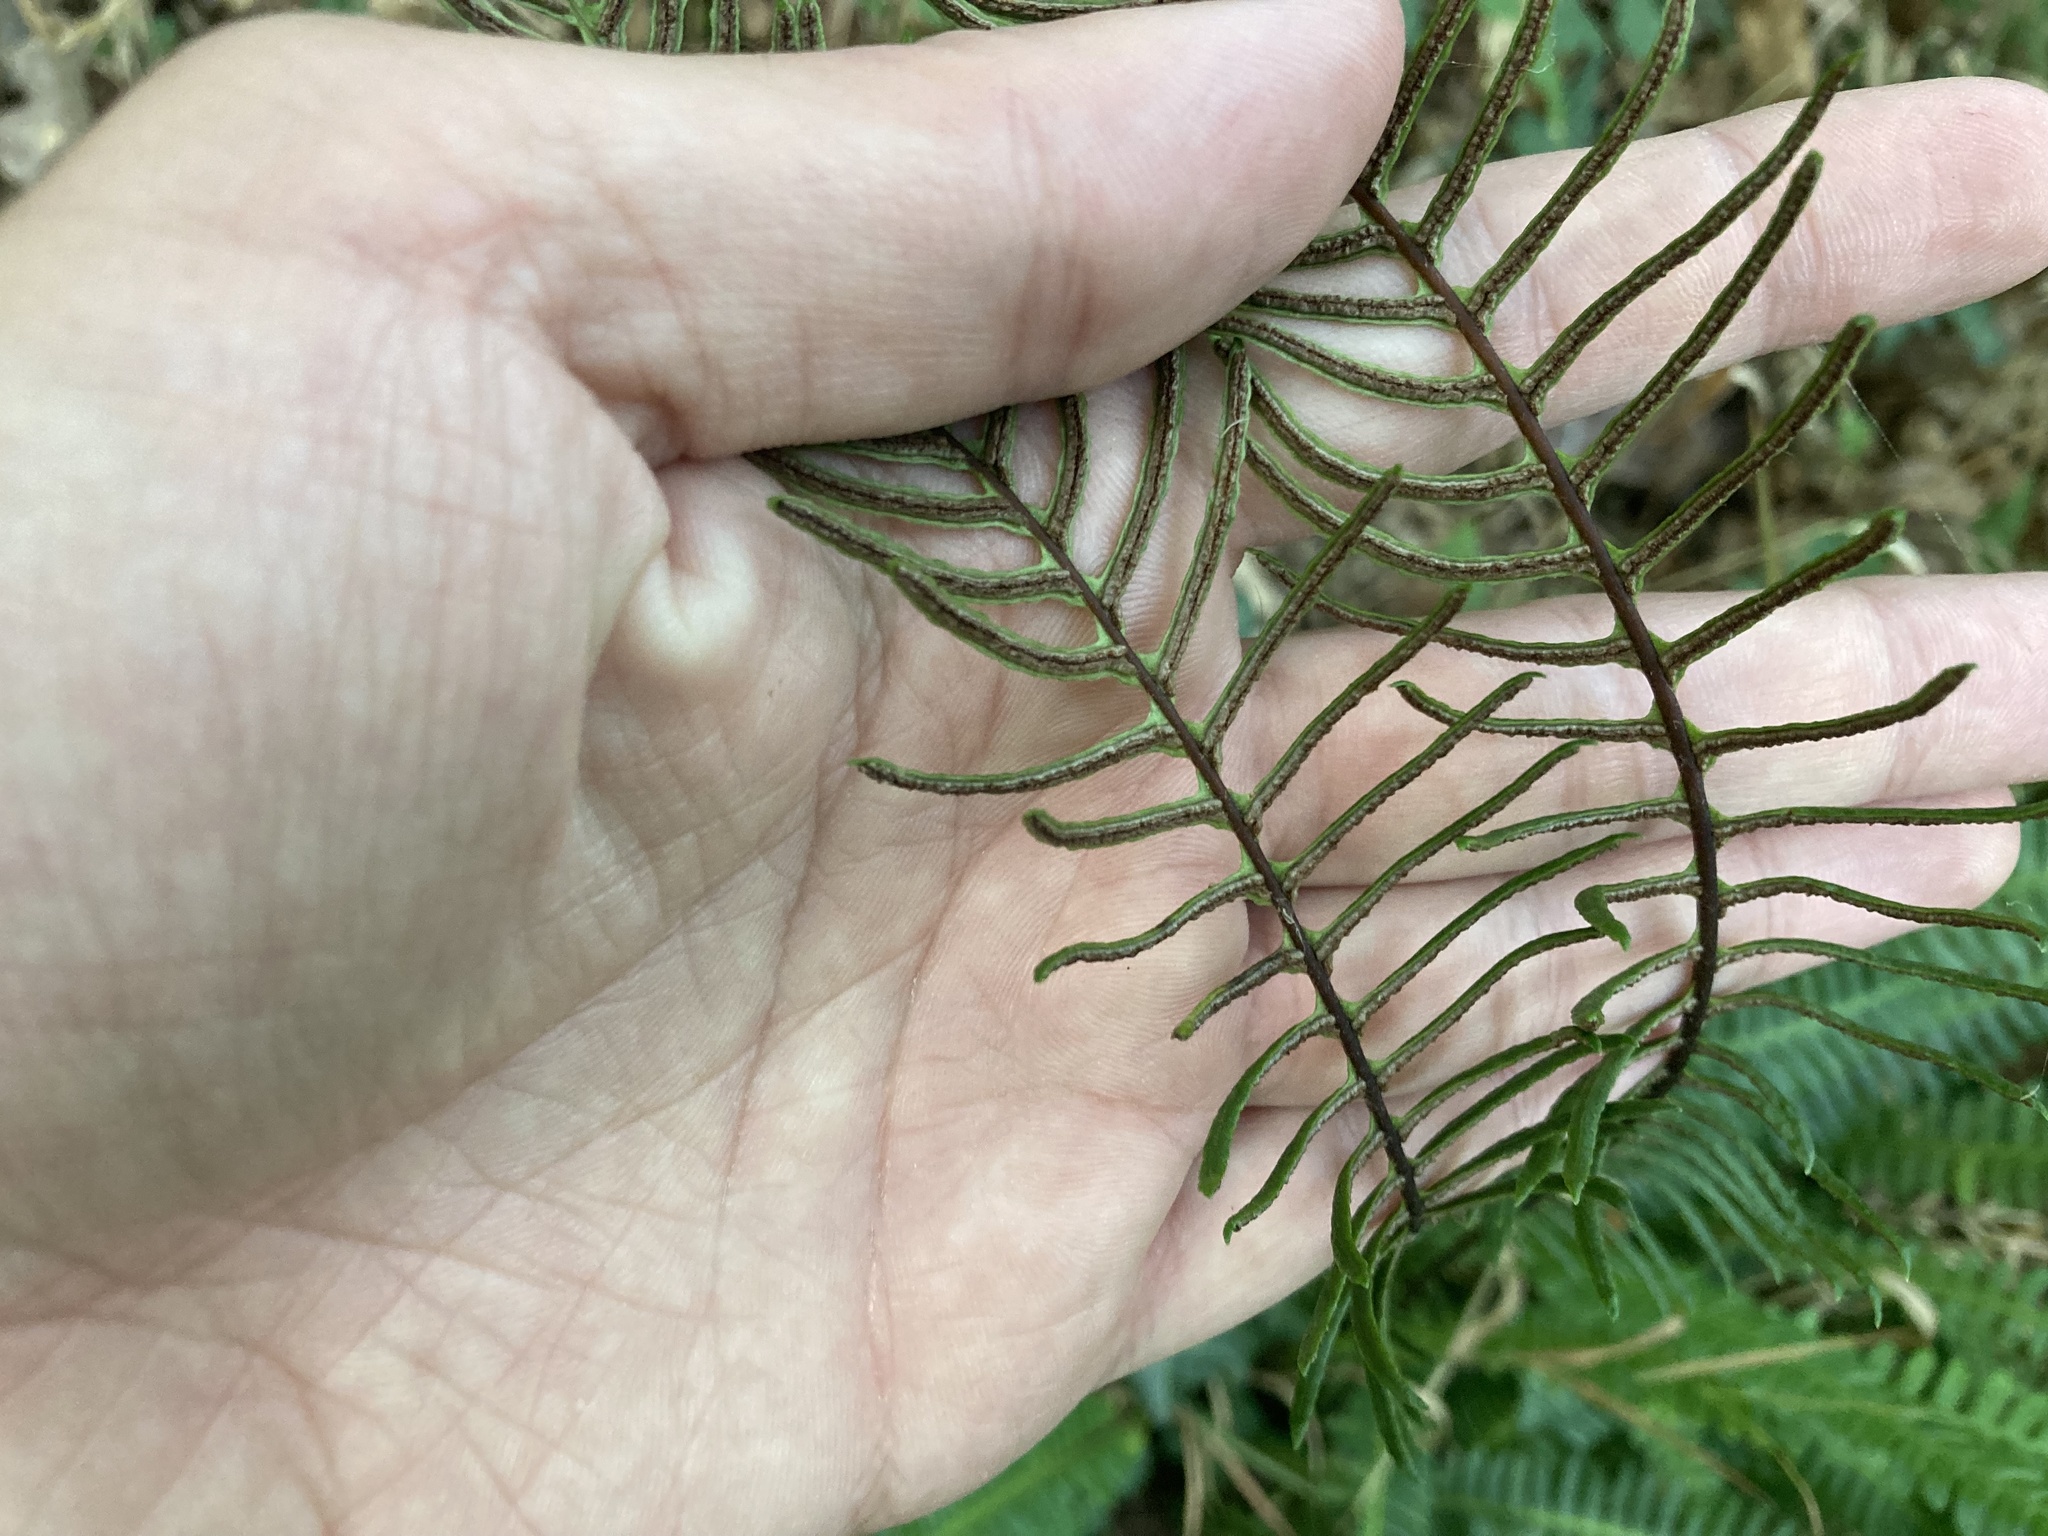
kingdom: Plantae
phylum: Tracheophyta
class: Polypodiopsida
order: Polypodiales
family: Blechnaceae
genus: Struthiopteris
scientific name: Struthiopteris spicant
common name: Deer fern
